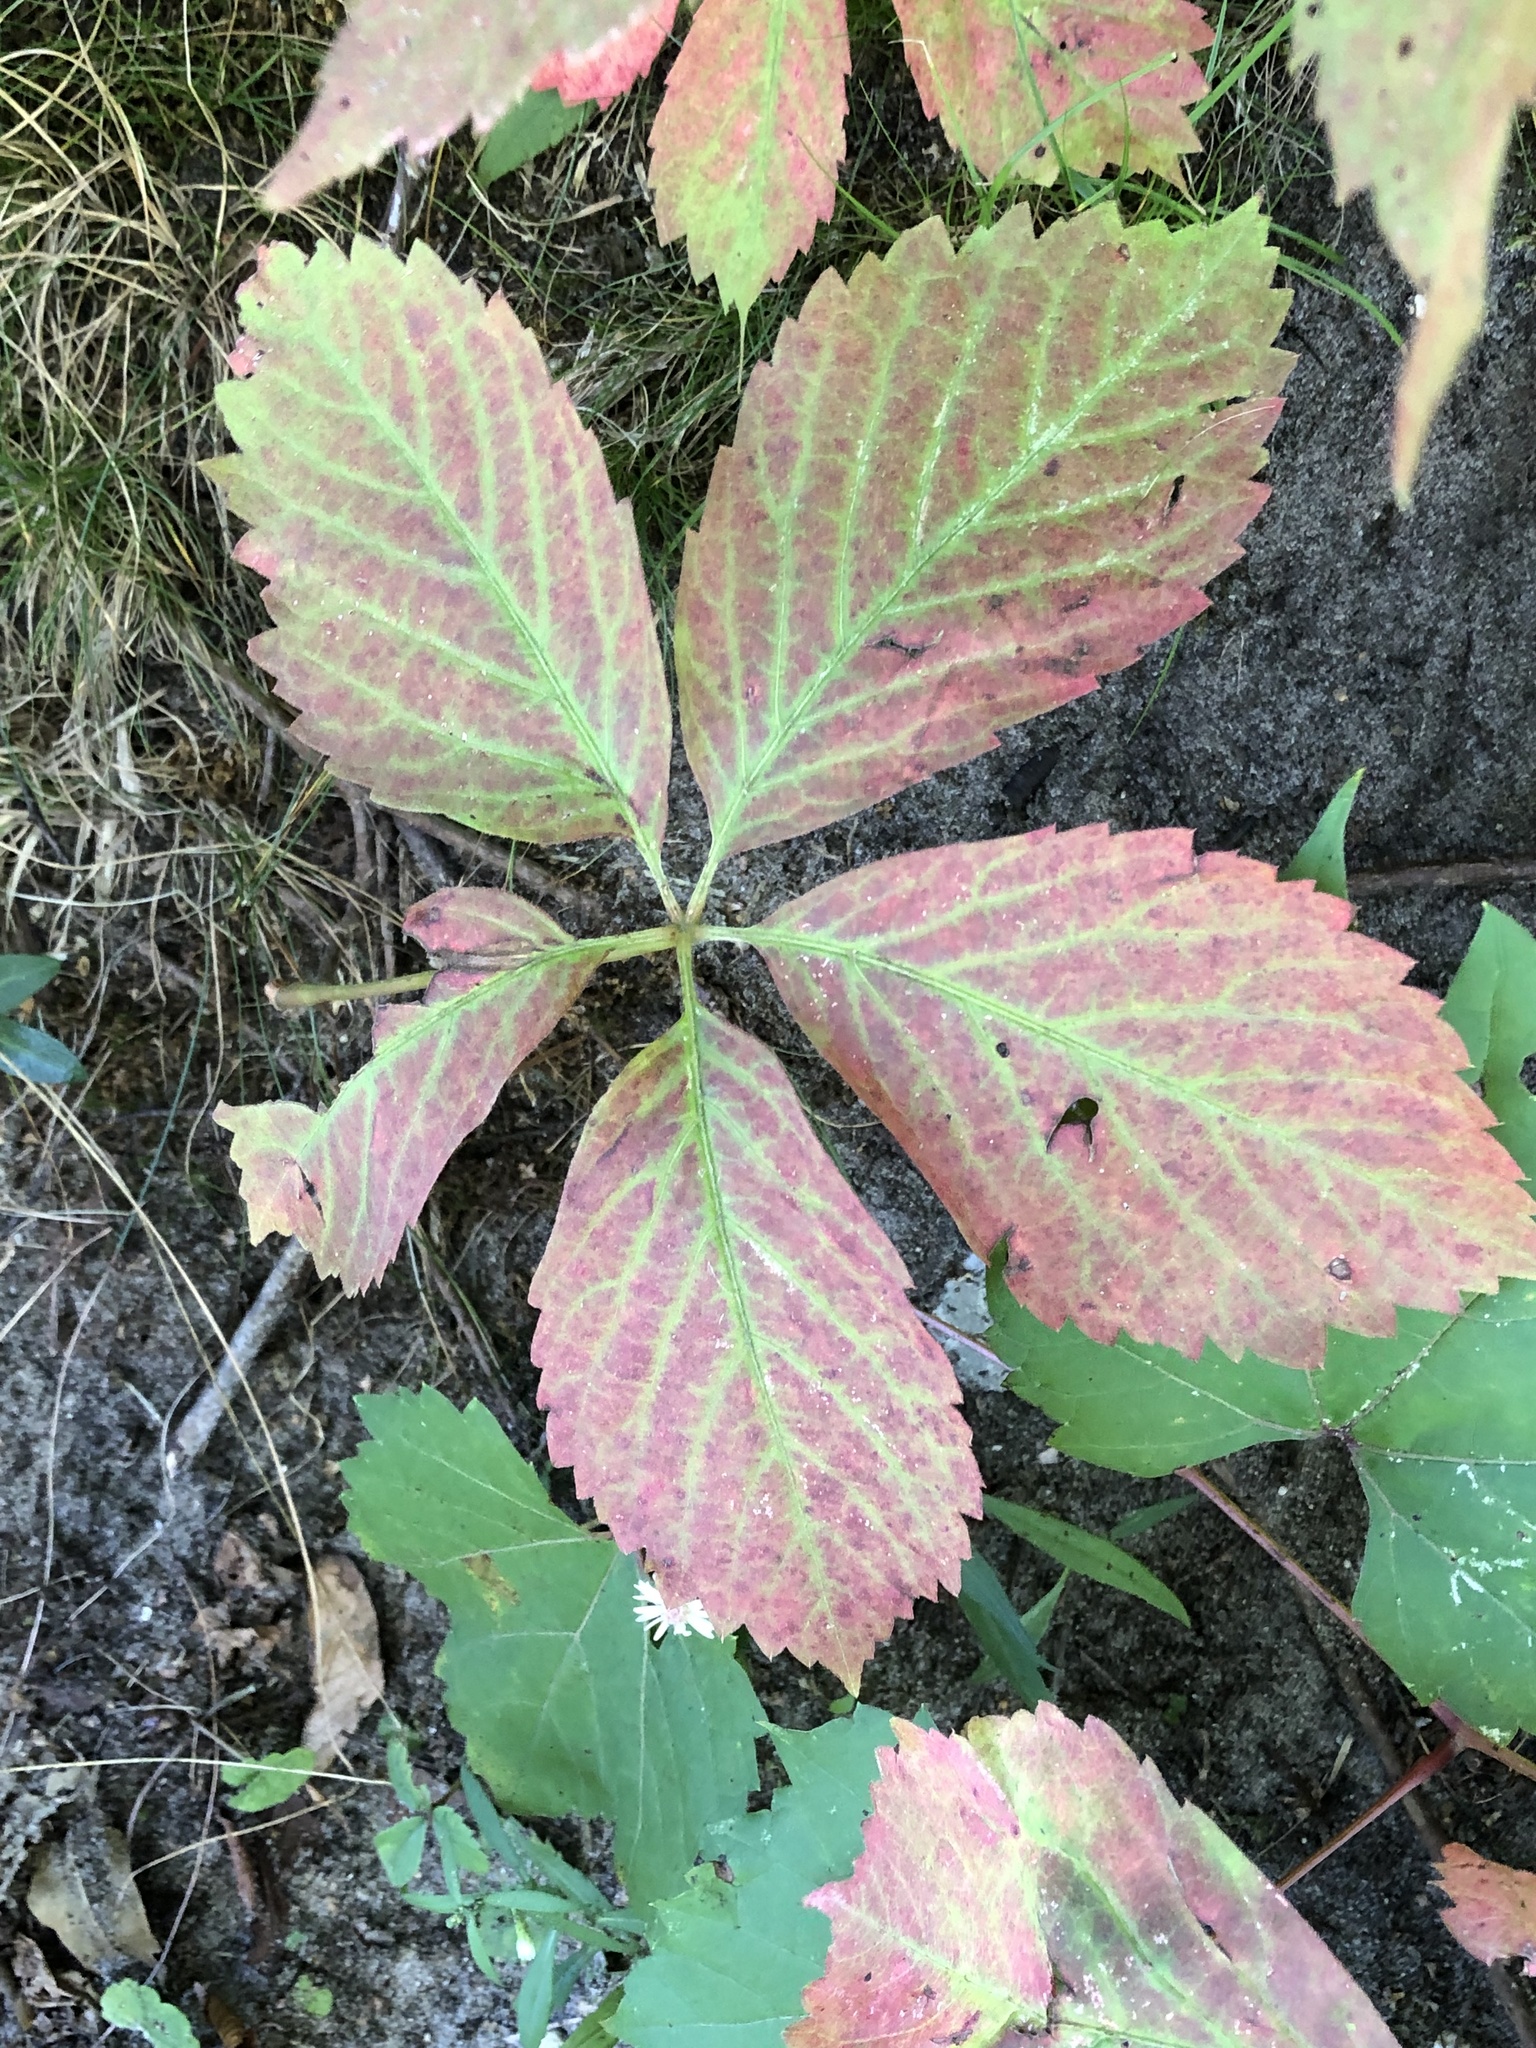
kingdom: Plantae
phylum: Tracheophyta
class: Magnoliopsida
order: Vitales
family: Vitaceae
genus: Parthenocissus
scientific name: Parthenocissus inserta
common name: False virginia-creeper
